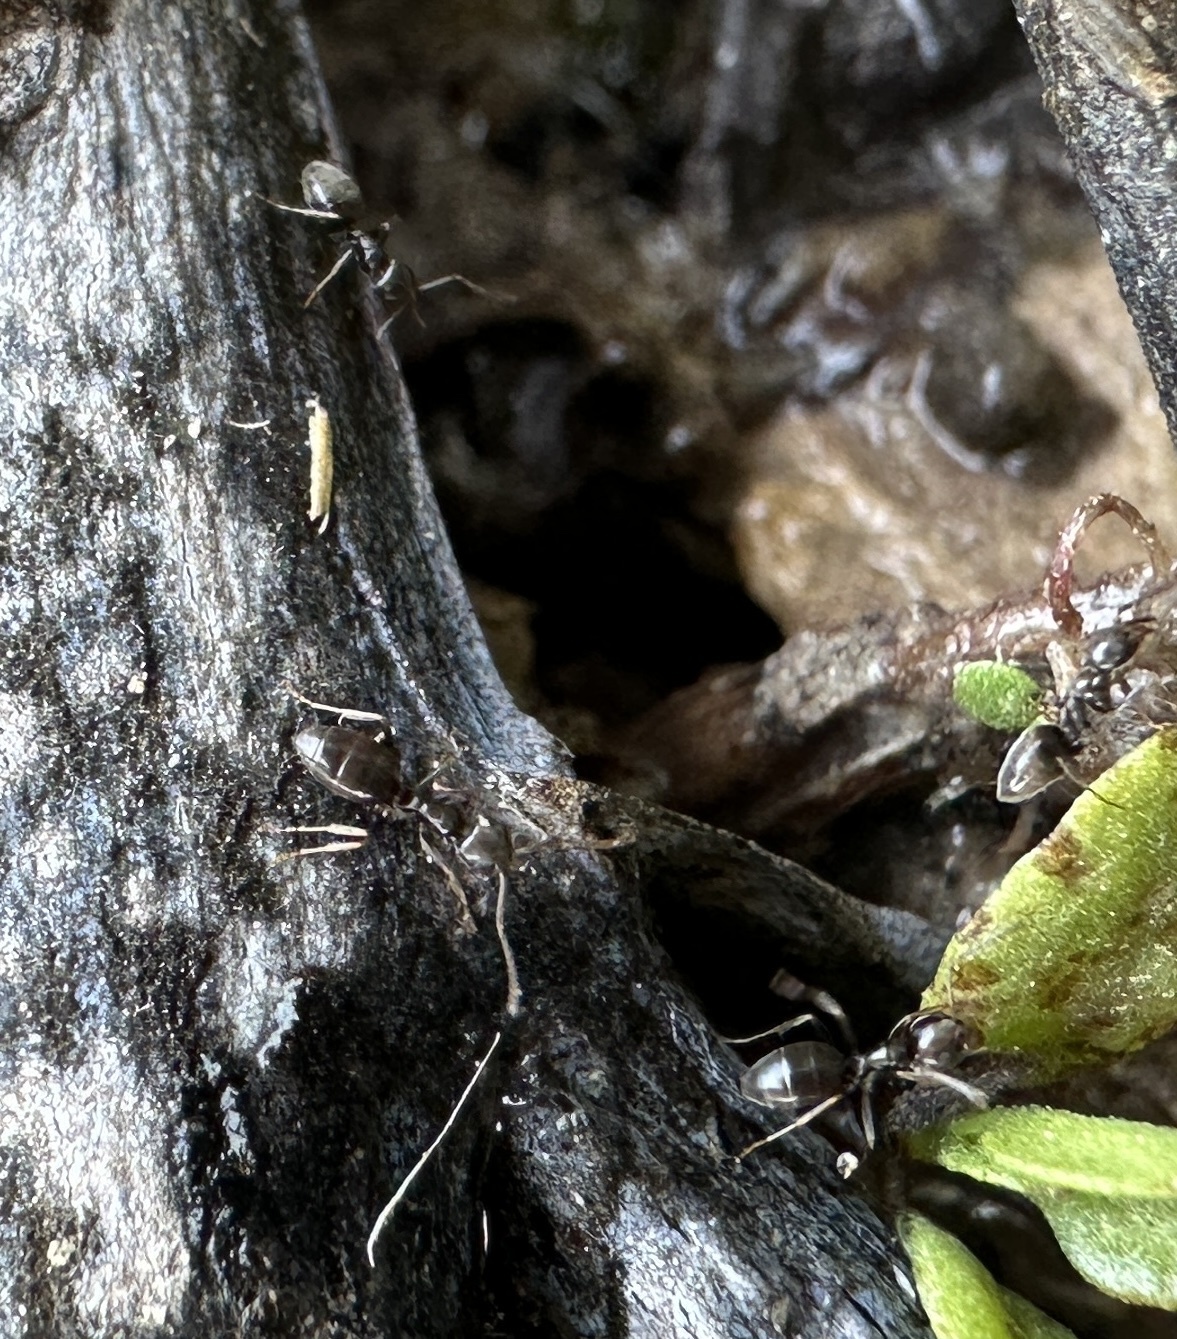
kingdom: Animalia
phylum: Arthropoda
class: Insecta
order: Hymenoptera
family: Formicidae
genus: Tapinoma
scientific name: Tapinoma sessile
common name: Odorous house ant
